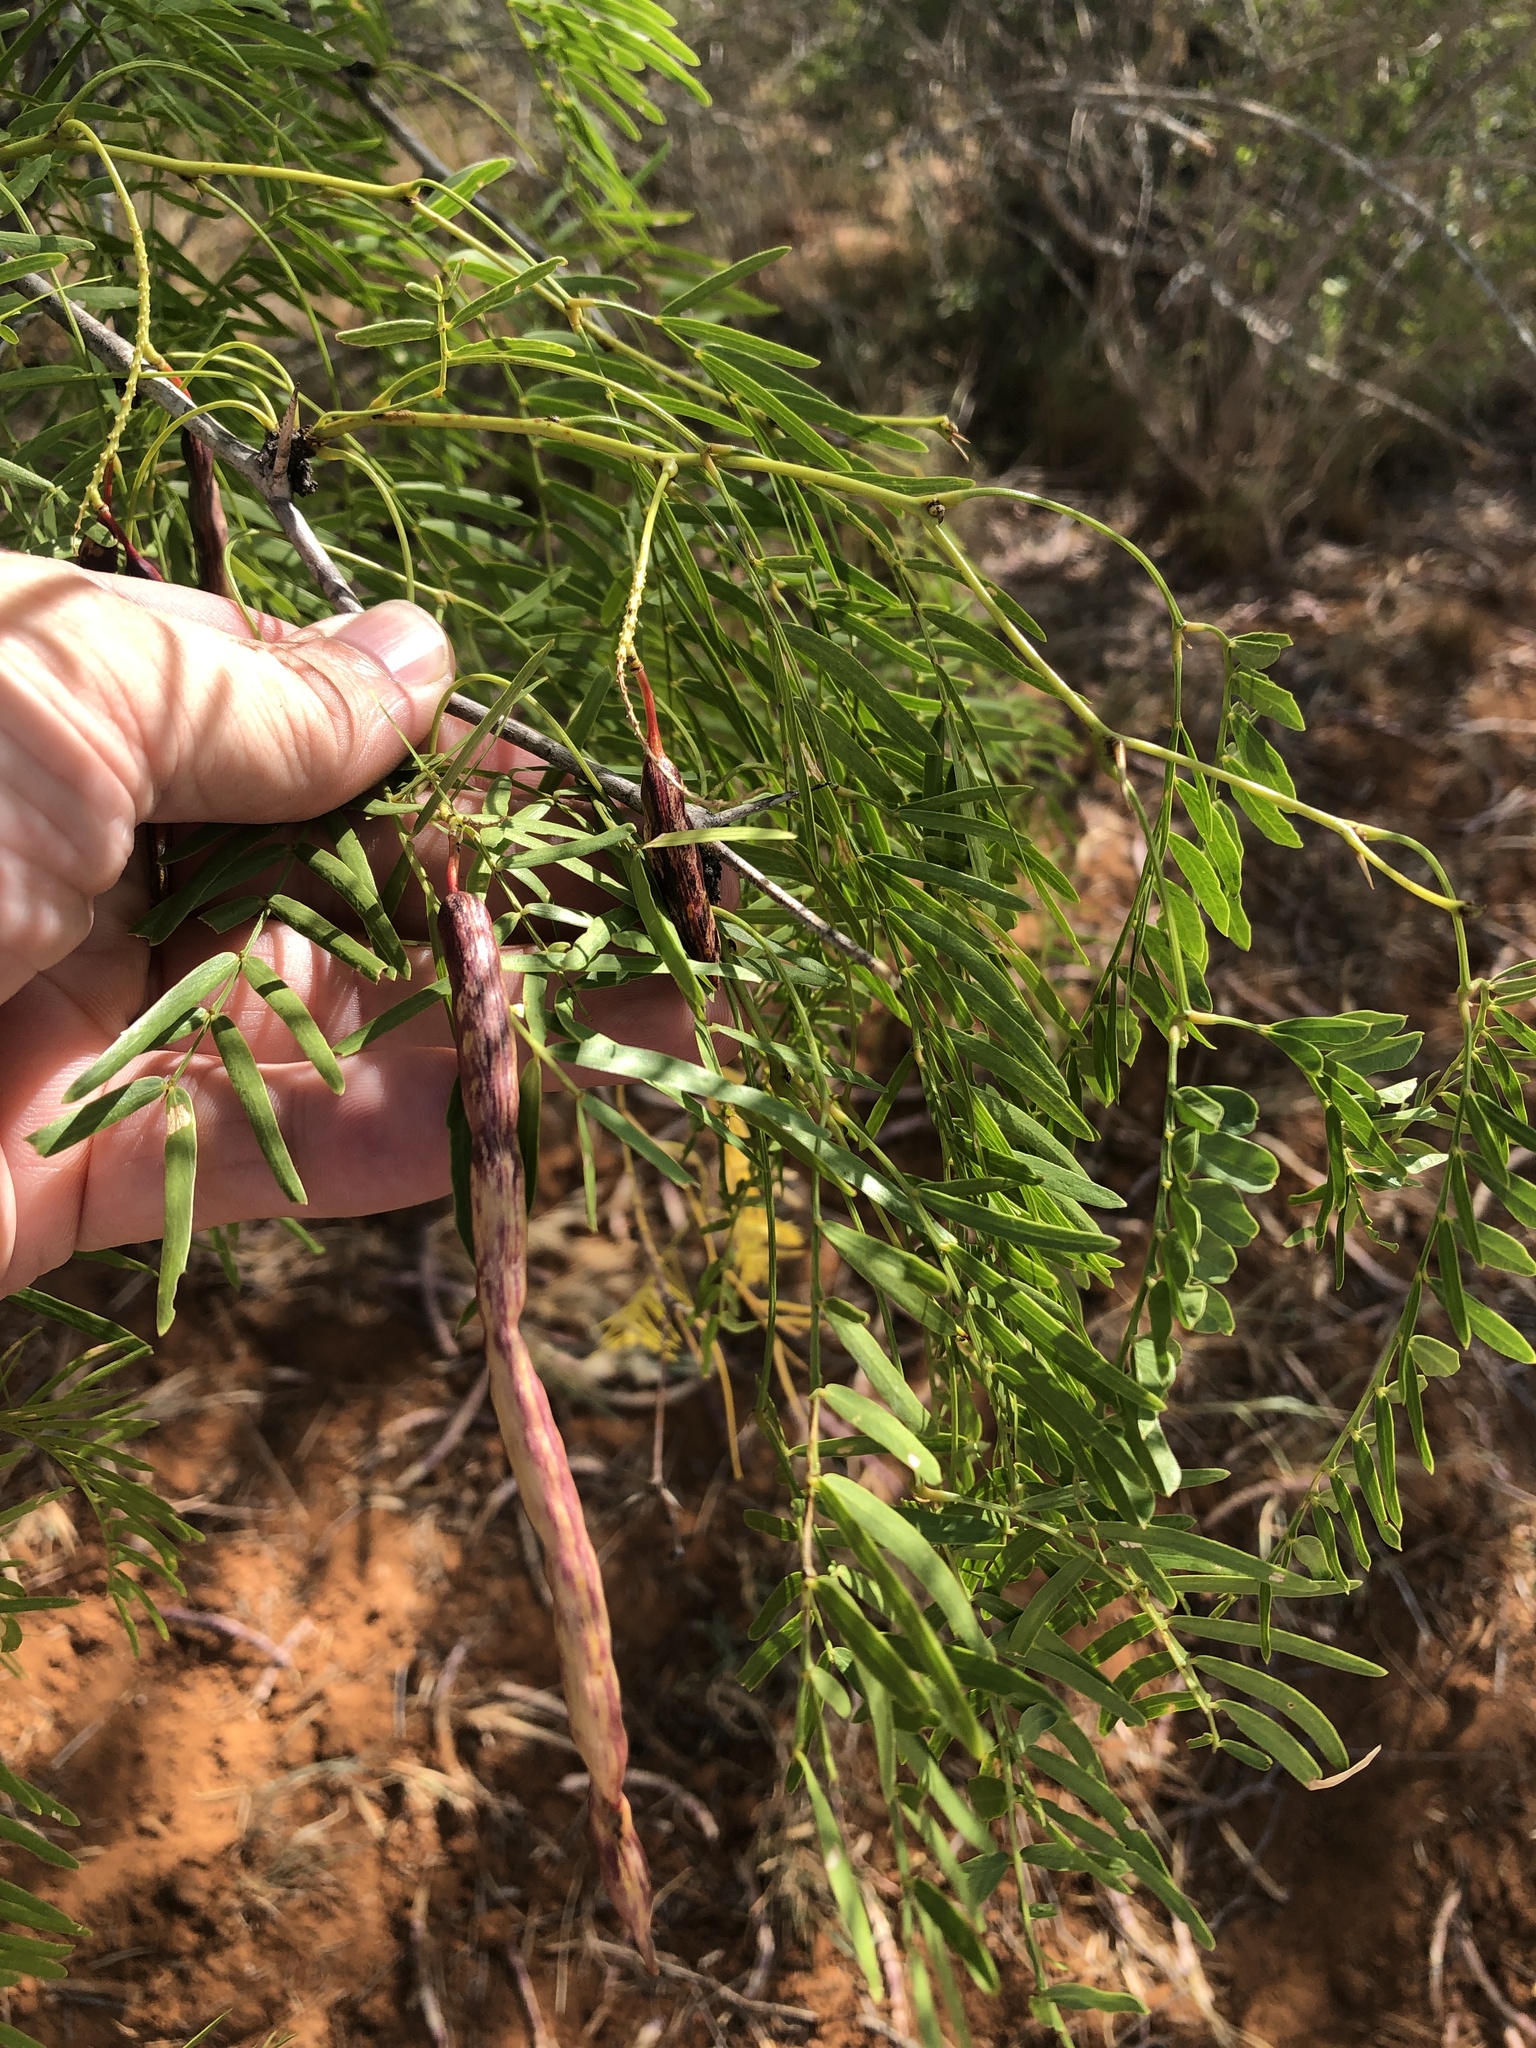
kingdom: Plantae
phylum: Tracheophyta
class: Magnoliopsida
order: Fabales
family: Fabaceae
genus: Prosopis
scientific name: Prosopis glandulosa
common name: Honey mesquite
